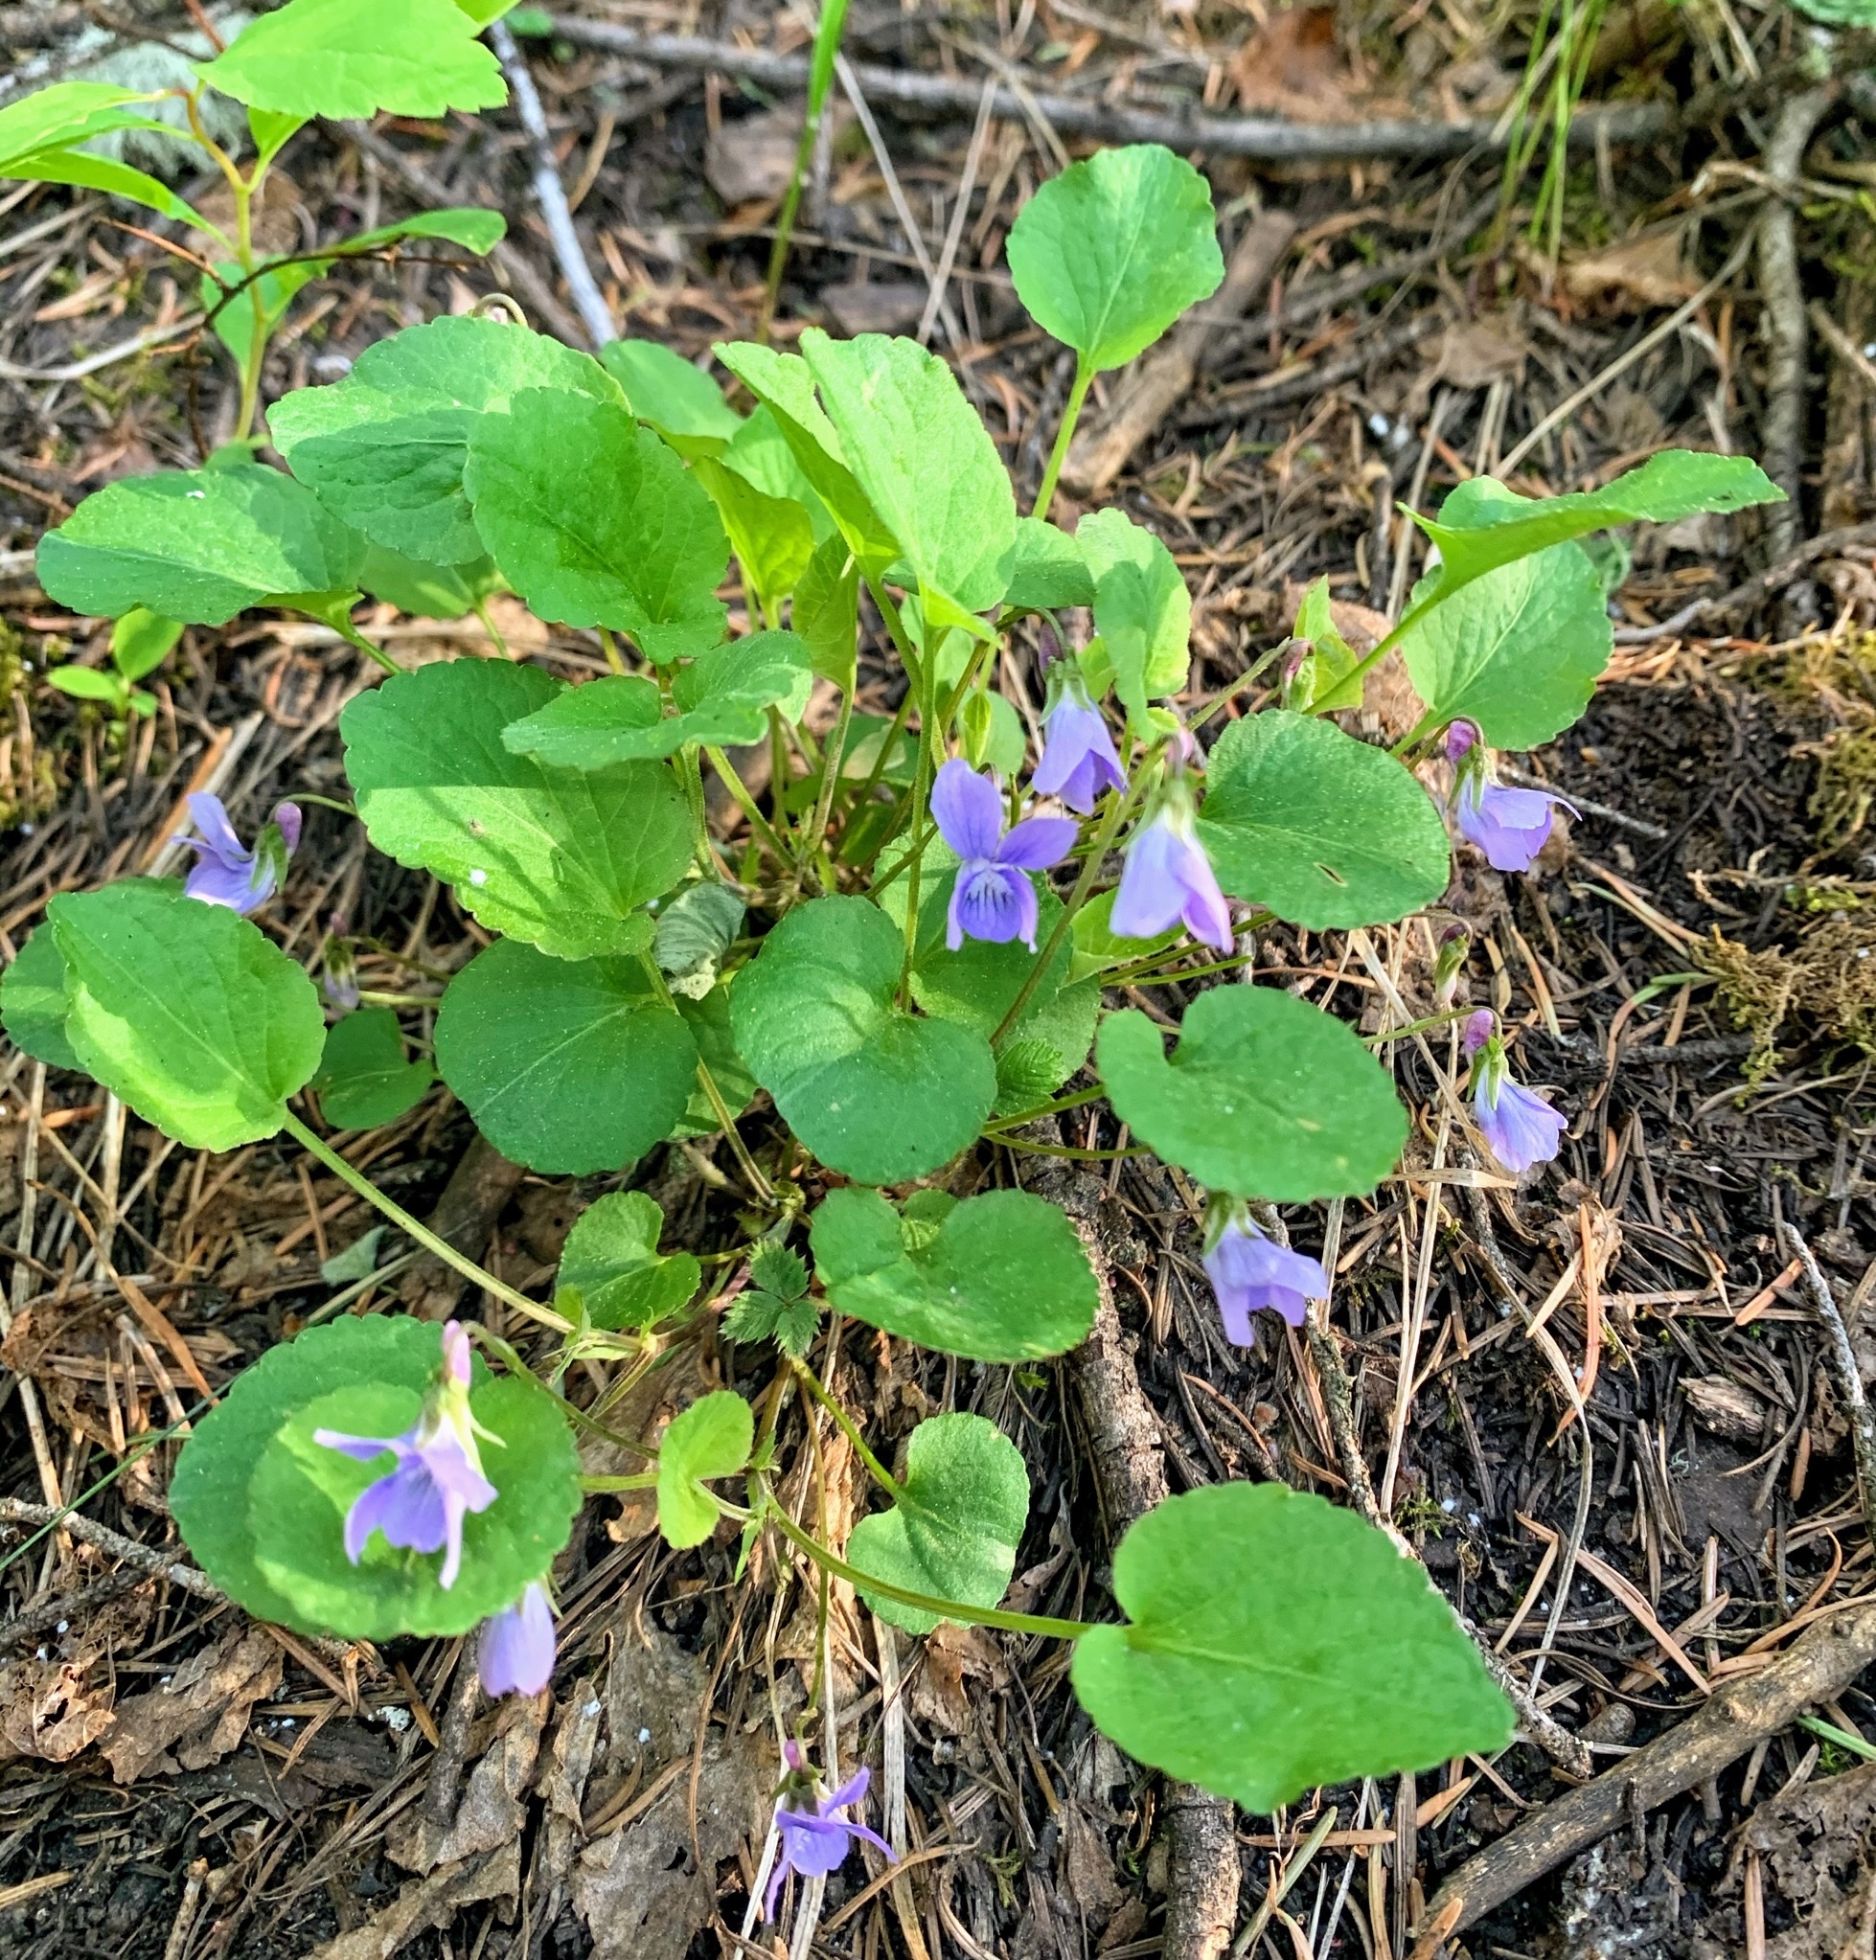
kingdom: Plantae
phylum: Tracheophyta
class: Magnoliopsida
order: Malpighiales
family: Violaceae
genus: Viola
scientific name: Viola adunca
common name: Sand violet
